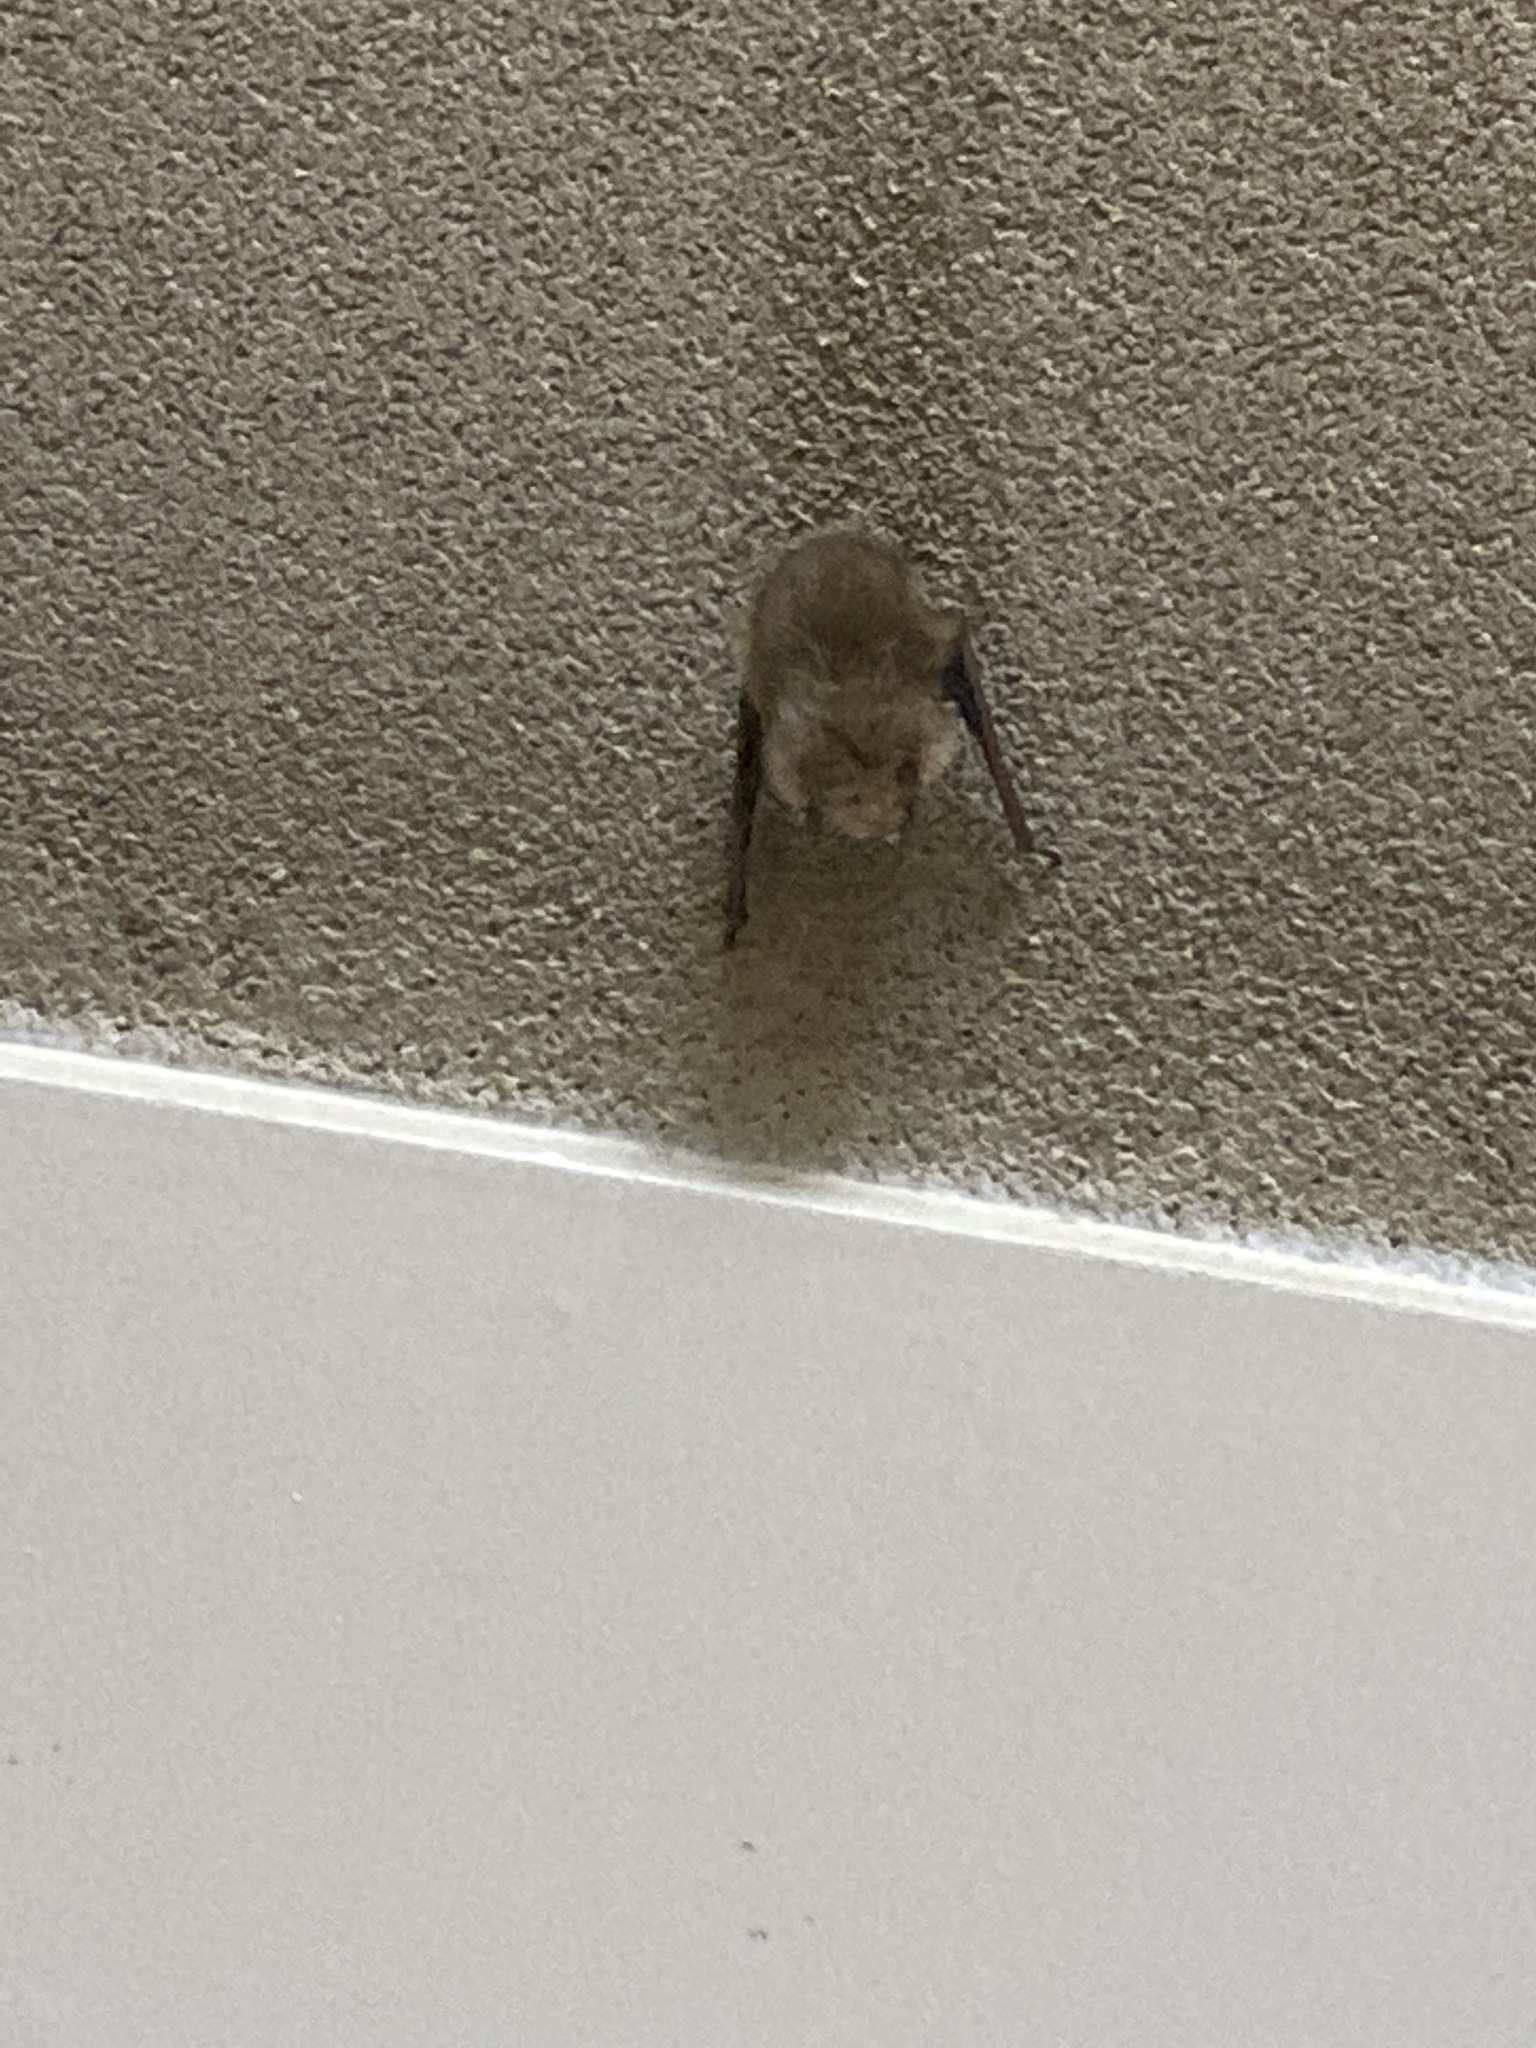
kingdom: Animalia
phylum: Chordata
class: Mammalia
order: Chiroptera
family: Vespertilionidae
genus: Perimyotis
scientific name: Perimyotis subflavus
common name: Eastern pipistrelle
